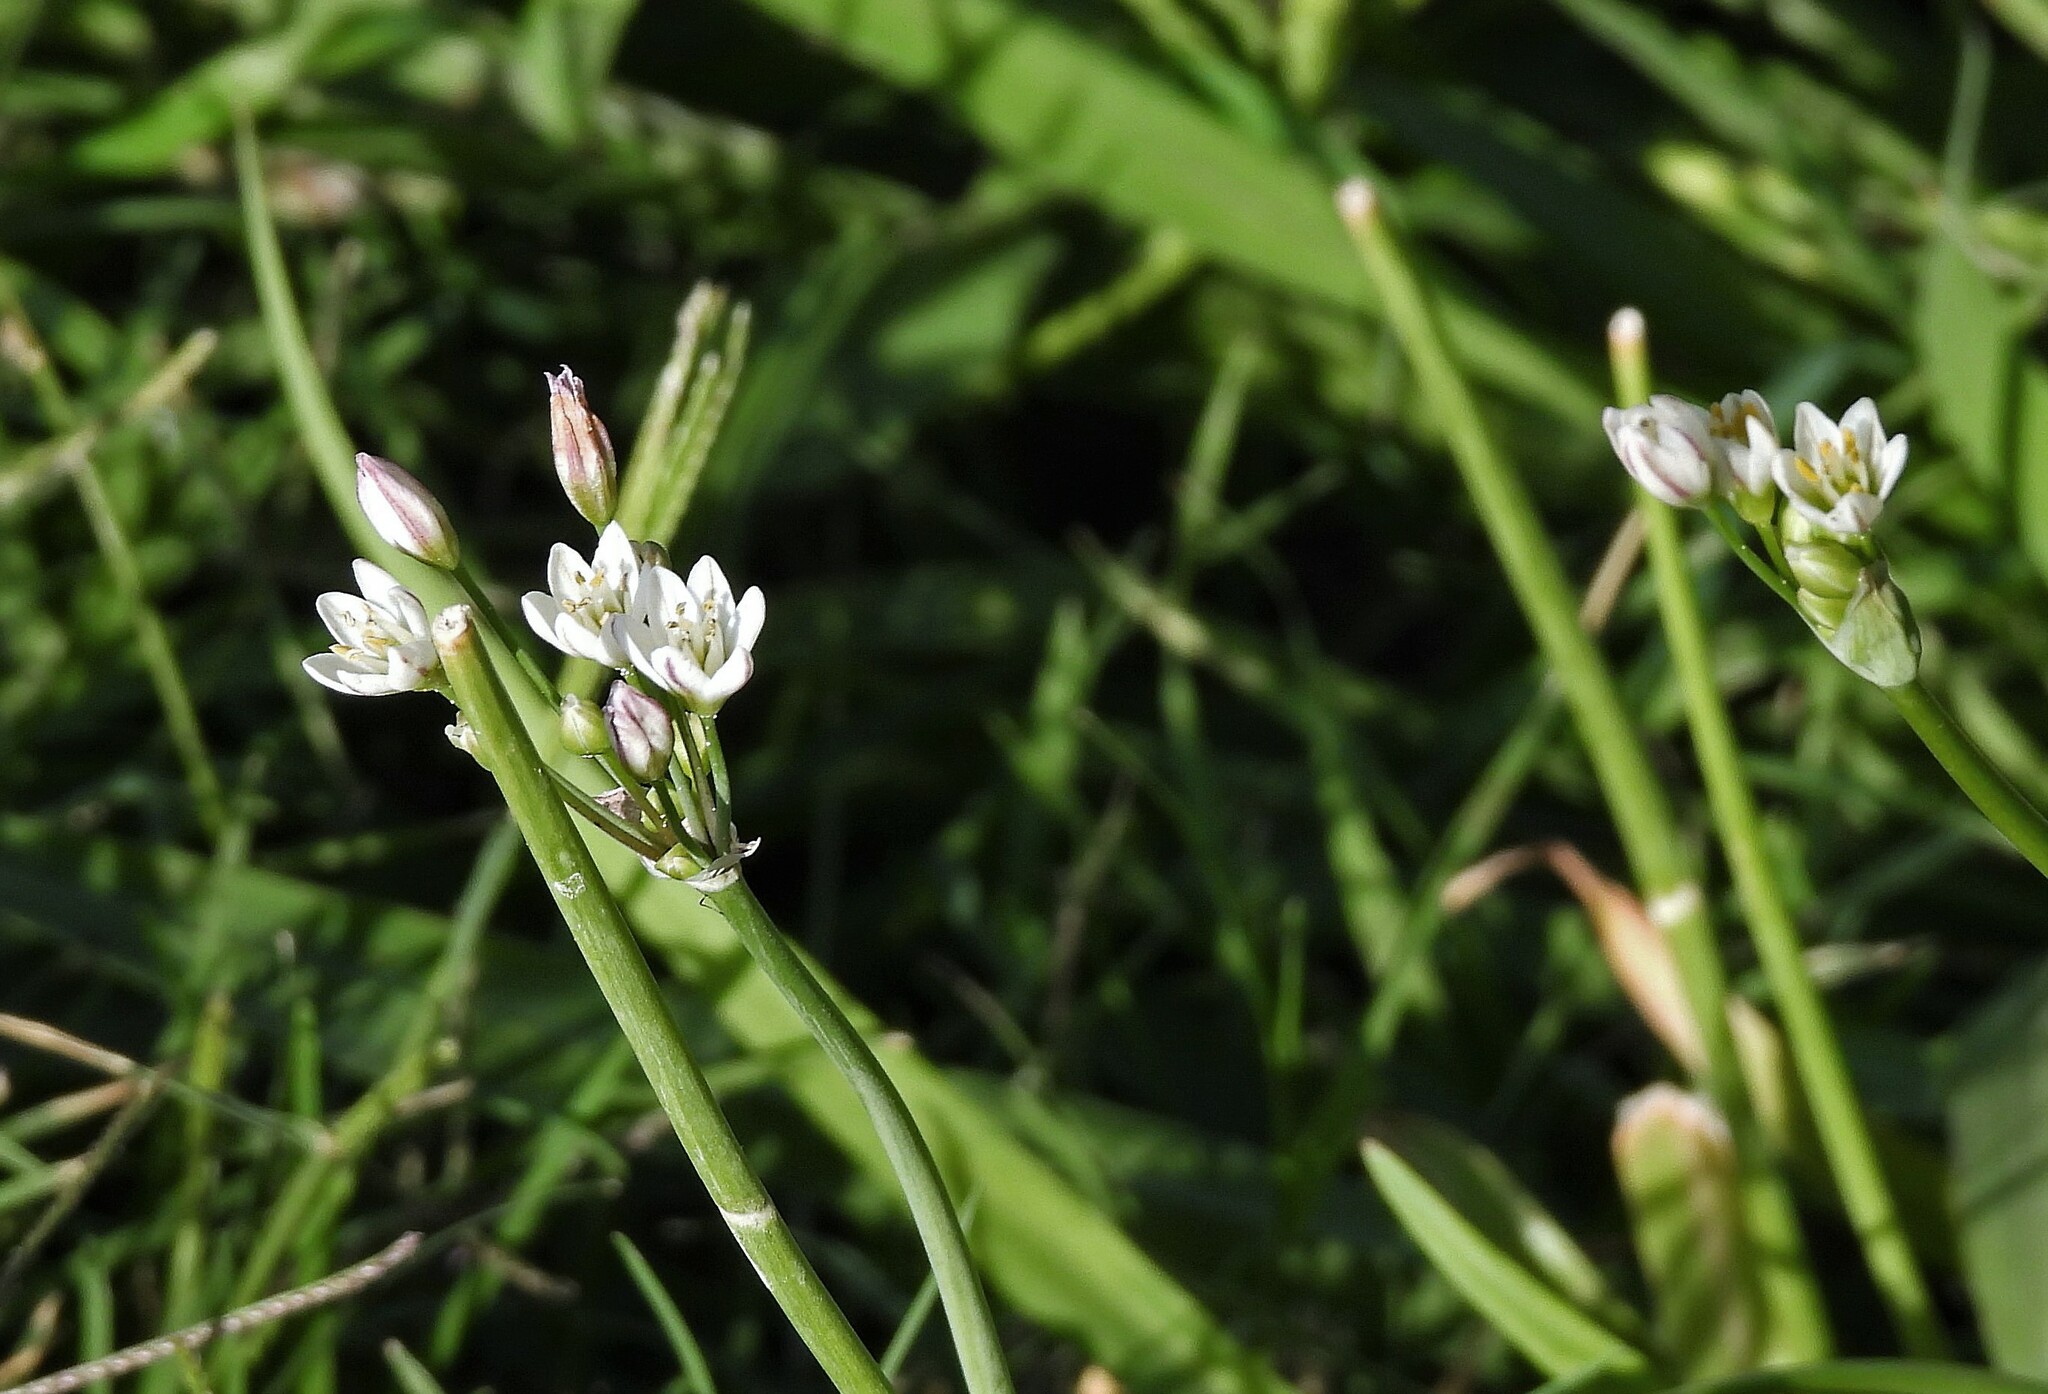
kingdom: Plantae
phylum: Tracheophyta
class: Liliopsida
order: Asparagales
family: Amaryllidaceae
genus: Nothoscordum
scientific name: Nothoscordum gracile
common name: Slender false garlic
